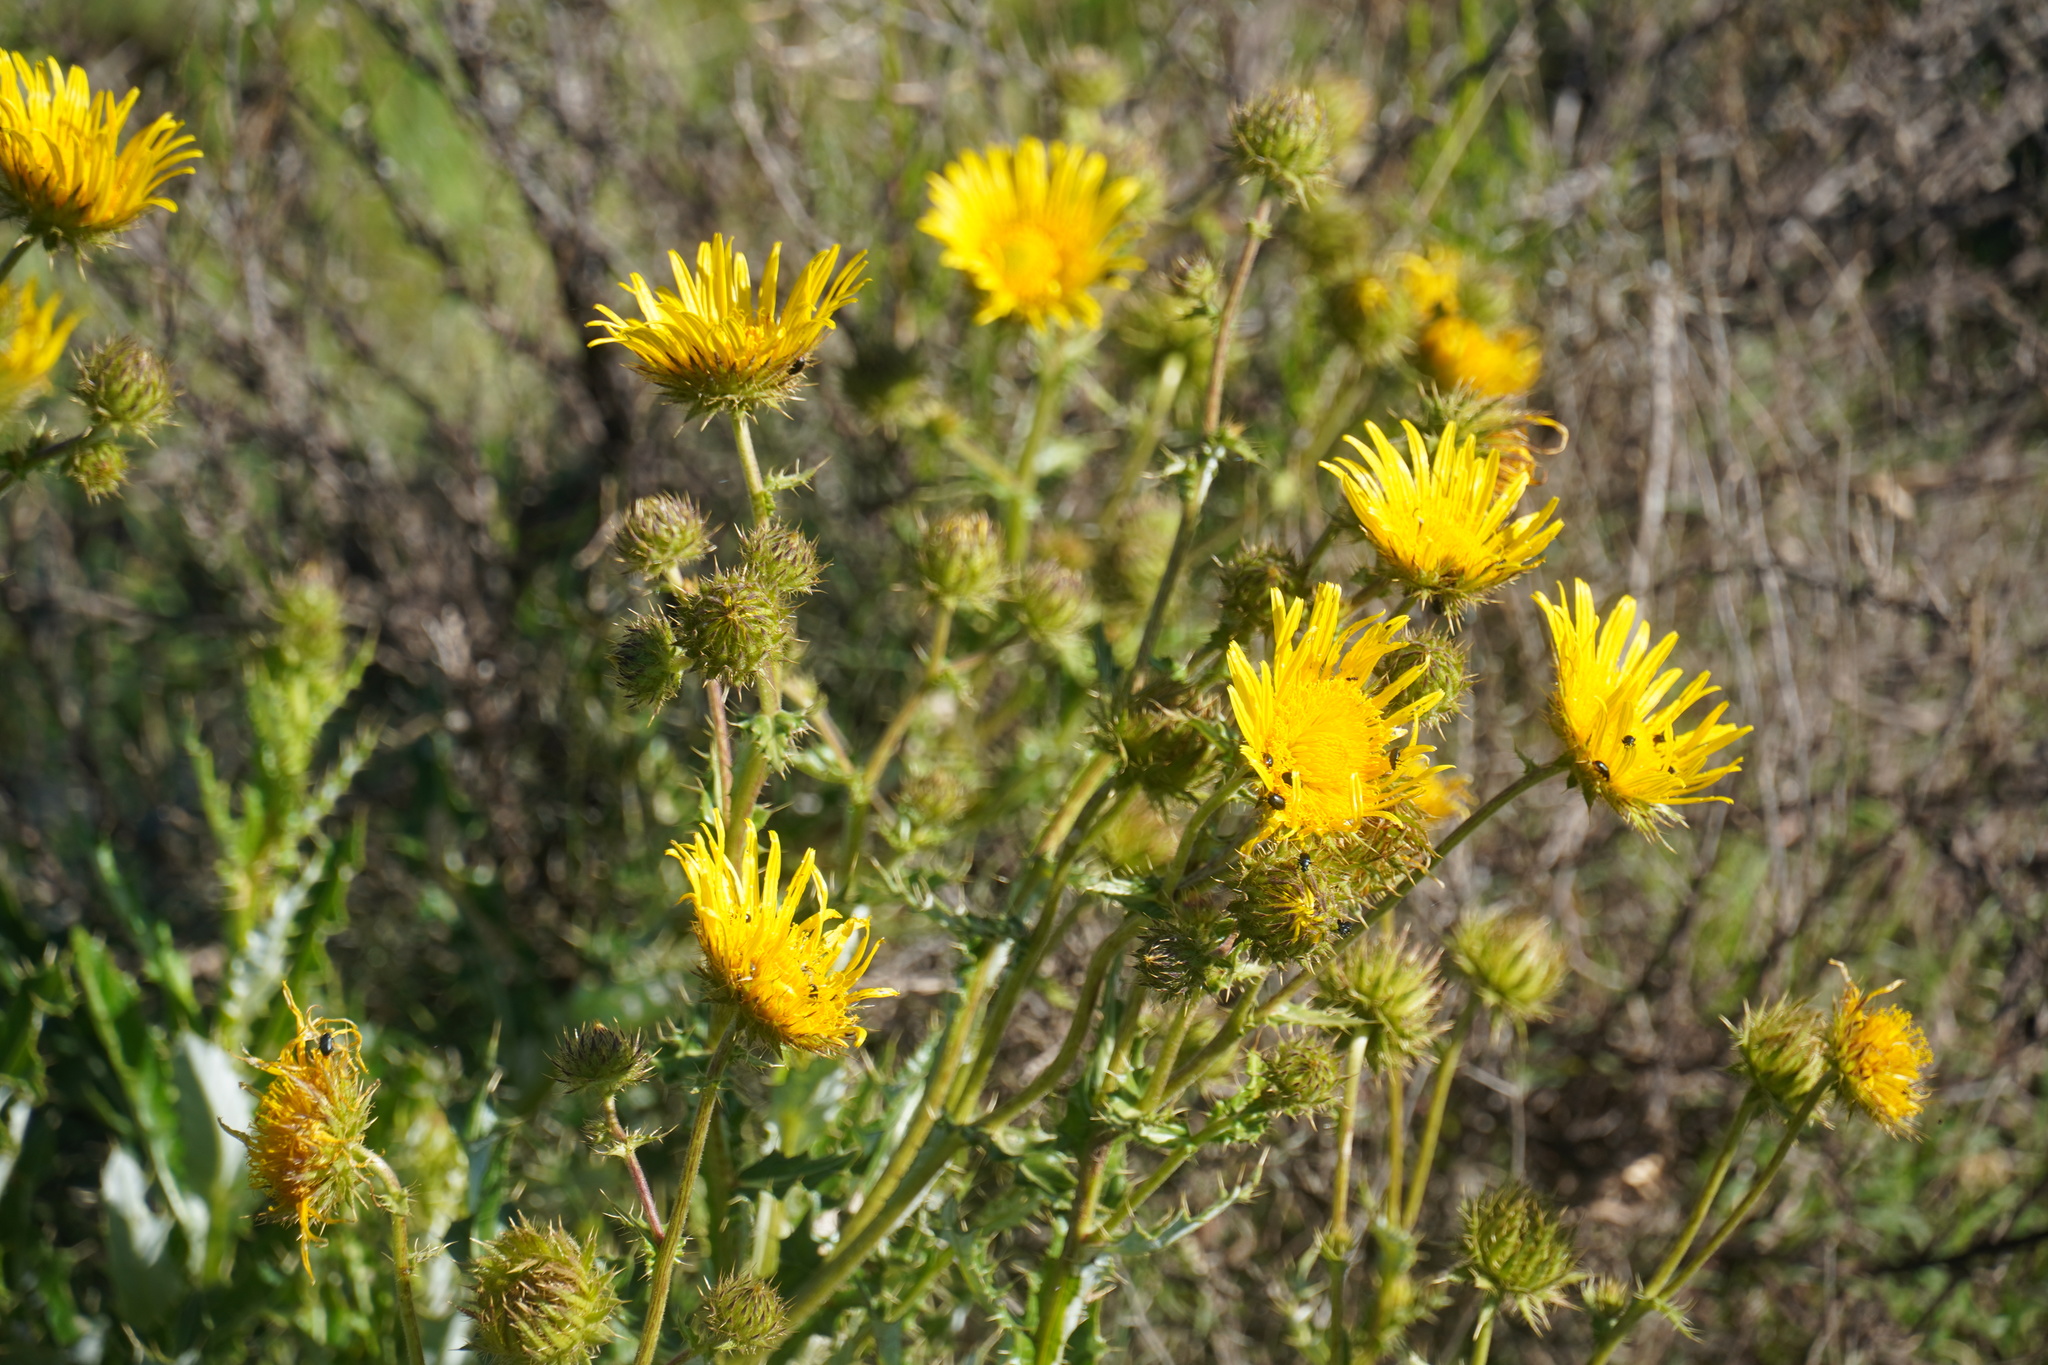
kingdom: Plantae
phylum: Tracheophyta
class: Magnoliopsida
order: Asterales
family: Asteraceae
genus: Berkheya
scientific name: Berkheya discolor
